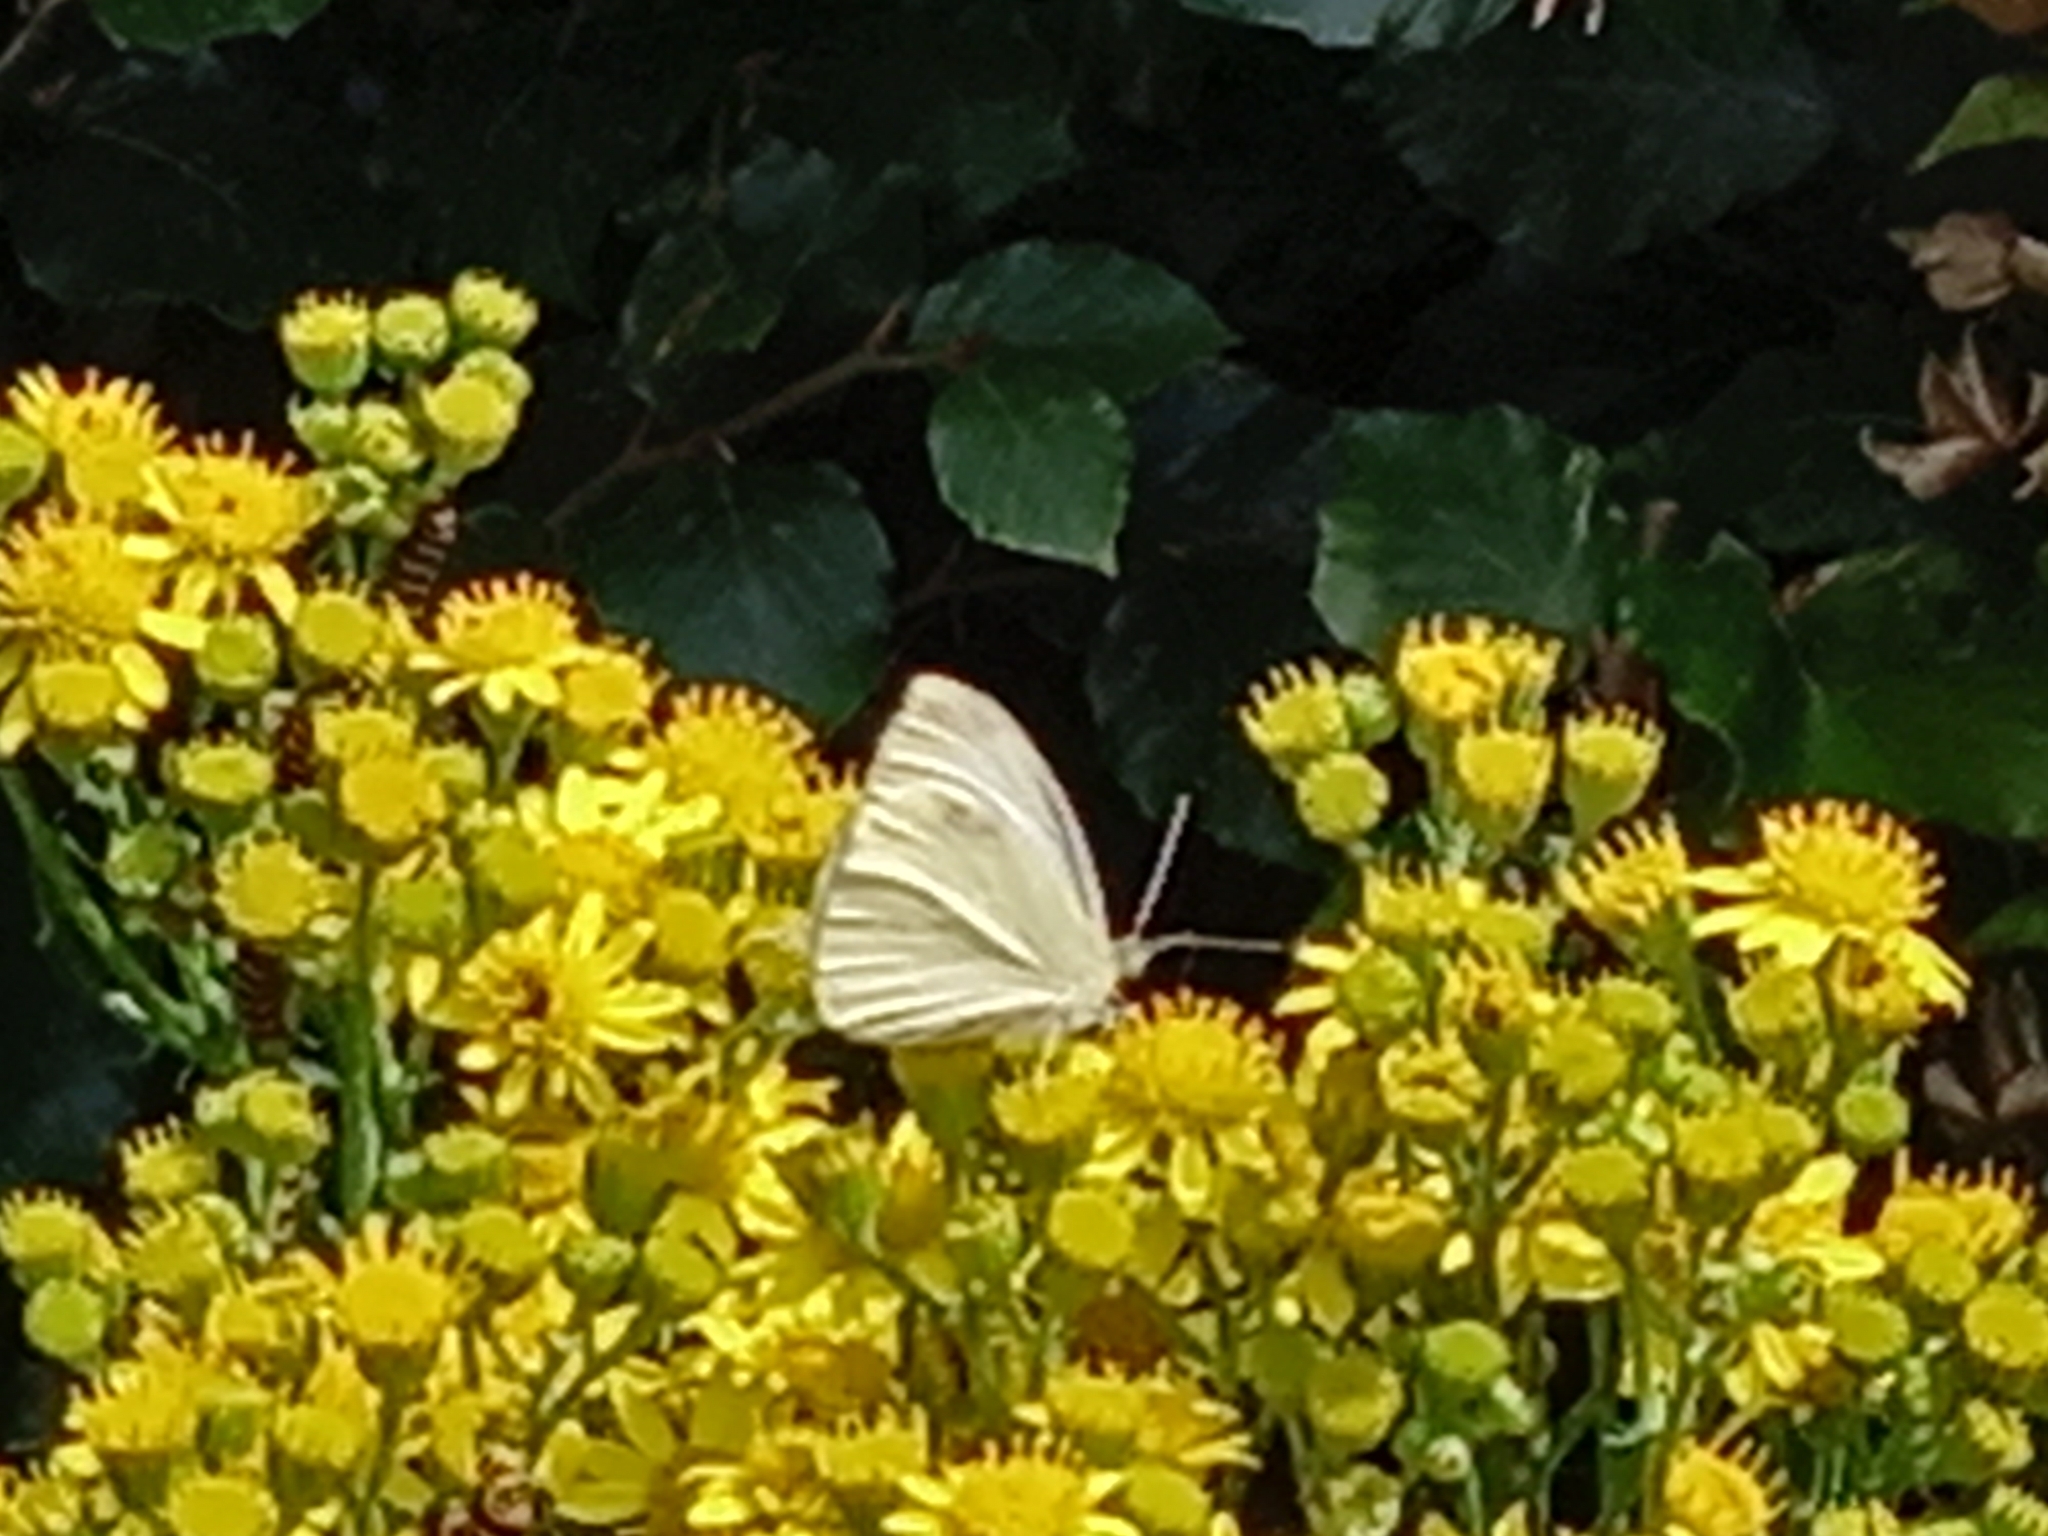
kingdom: Animalia
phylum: Arthropoda
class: Insecta
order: Lepidoptera
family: Pieridae
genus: Pieris
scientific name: Pieris rapae
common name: Small white
